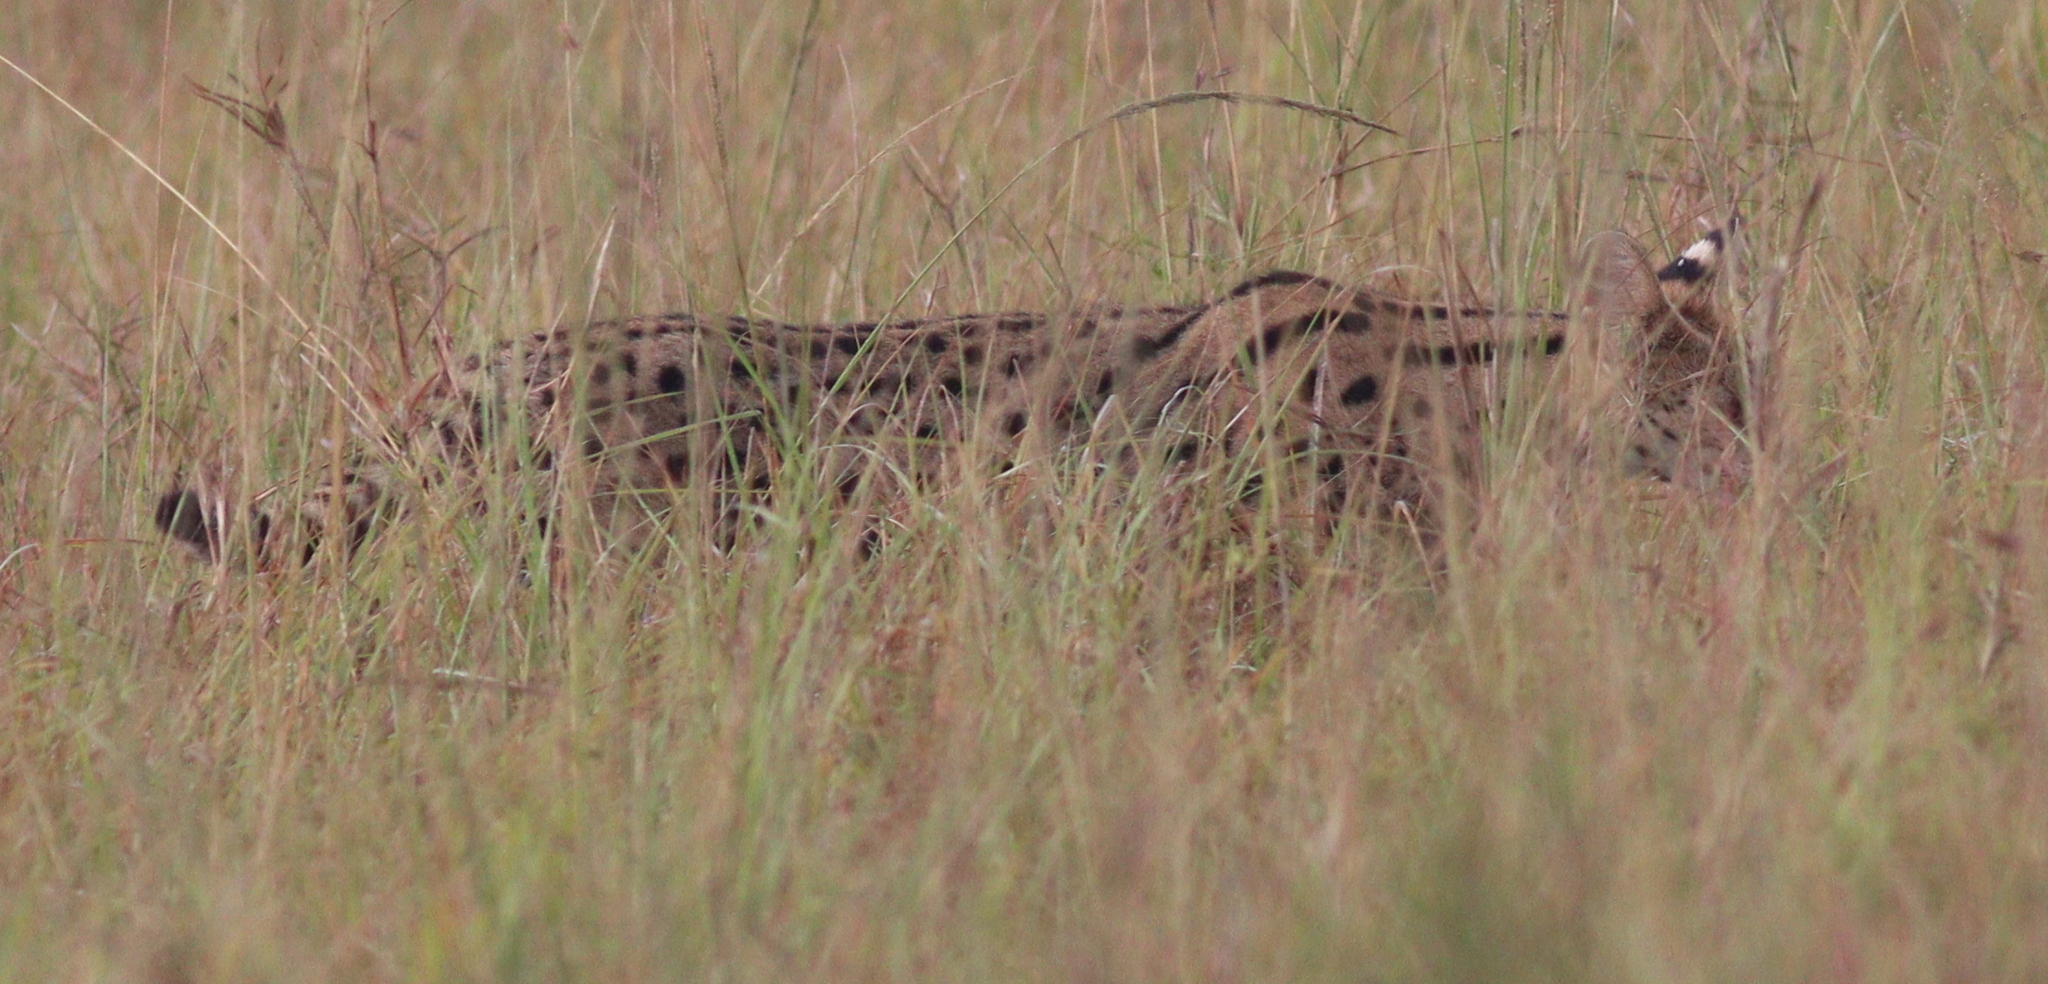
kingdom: Animalia
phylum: Chordata
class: Mammalia
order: Carnivora
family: Felidae
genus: Leptailurus
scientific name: Leptailurus serval
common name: Serval
